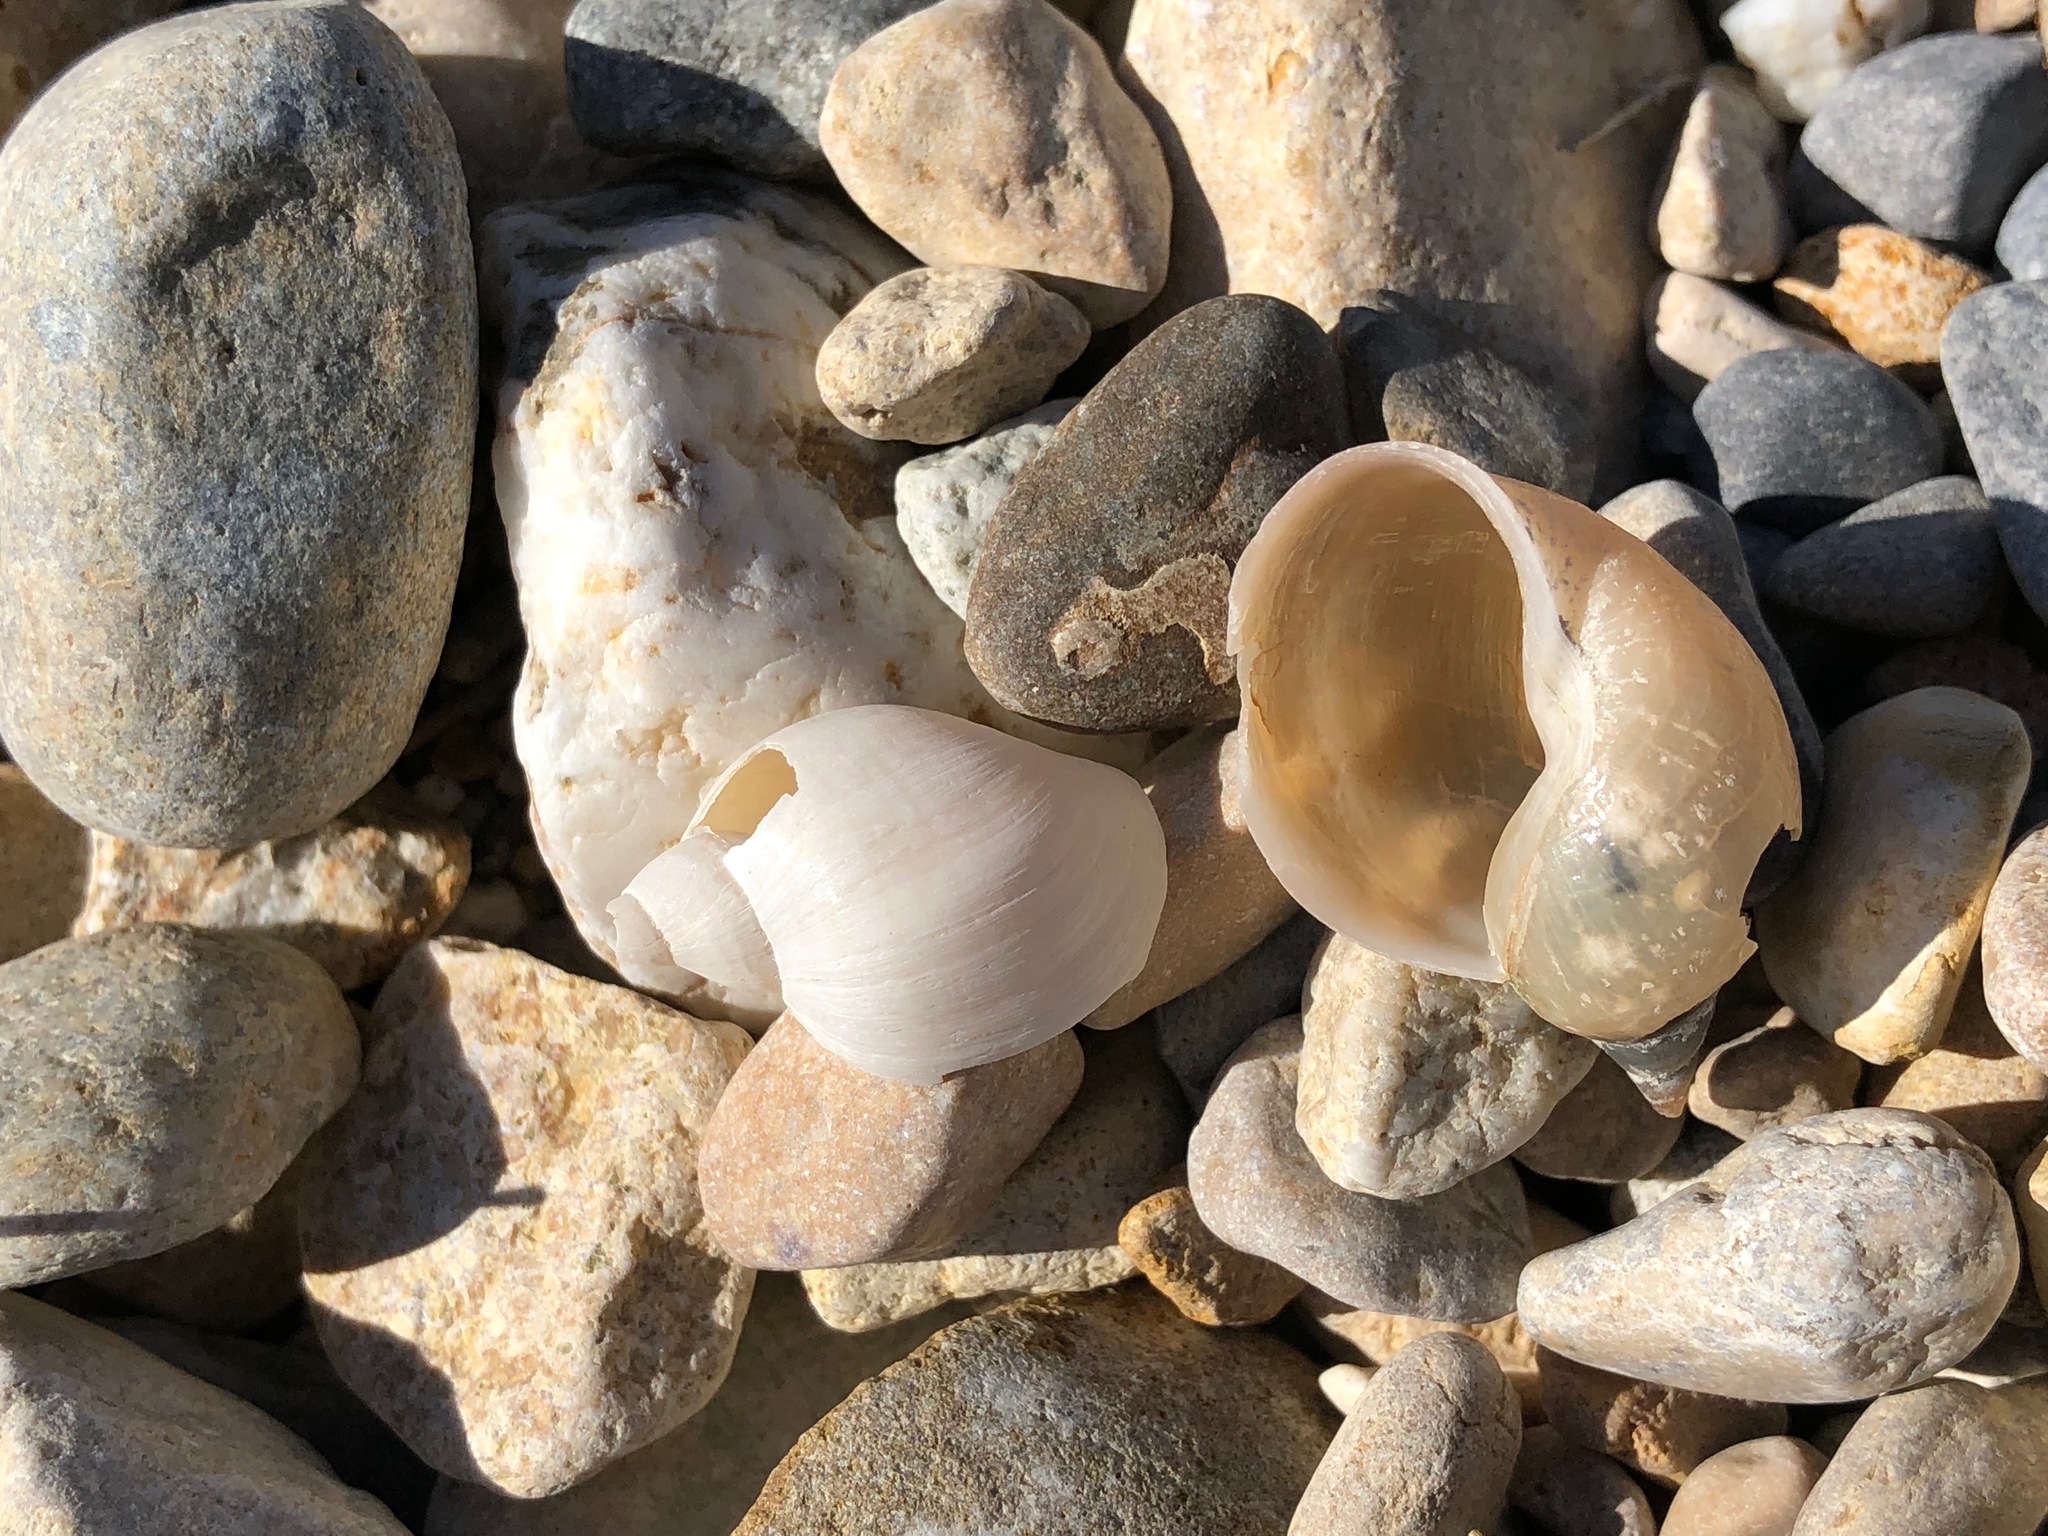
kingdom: Animalia
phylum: Mollusca
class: Gastropoda
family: Lymnaeidae
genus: Lymnaea
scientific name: Lymnaea stagnalis
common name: Great pond snail
